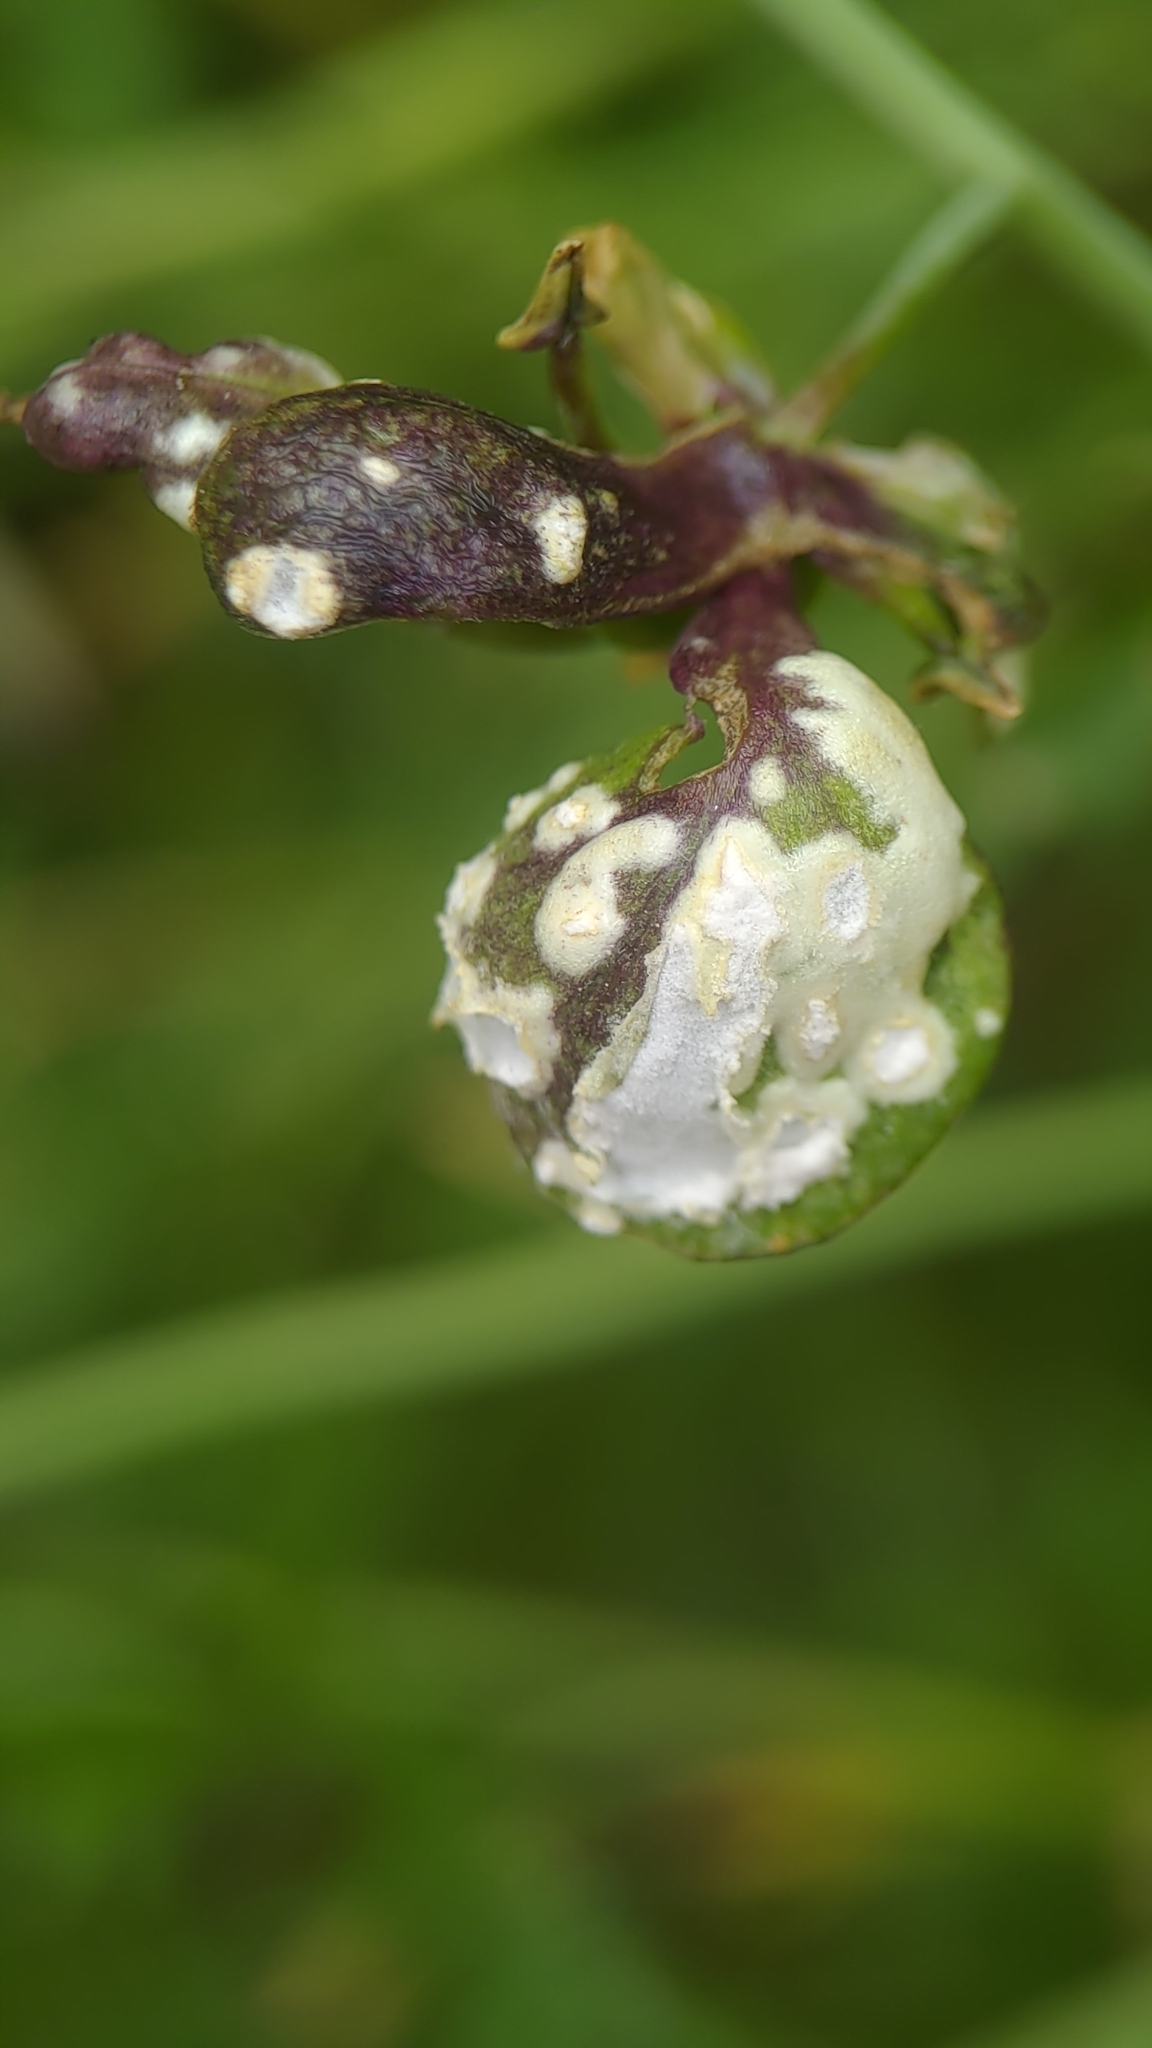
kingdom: Chromista
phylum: Oomycota
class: Peronosporea
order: Albuginales
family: Albuginaceae
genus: Albugo
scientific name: Albugo candida
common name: Crucifer white blister
